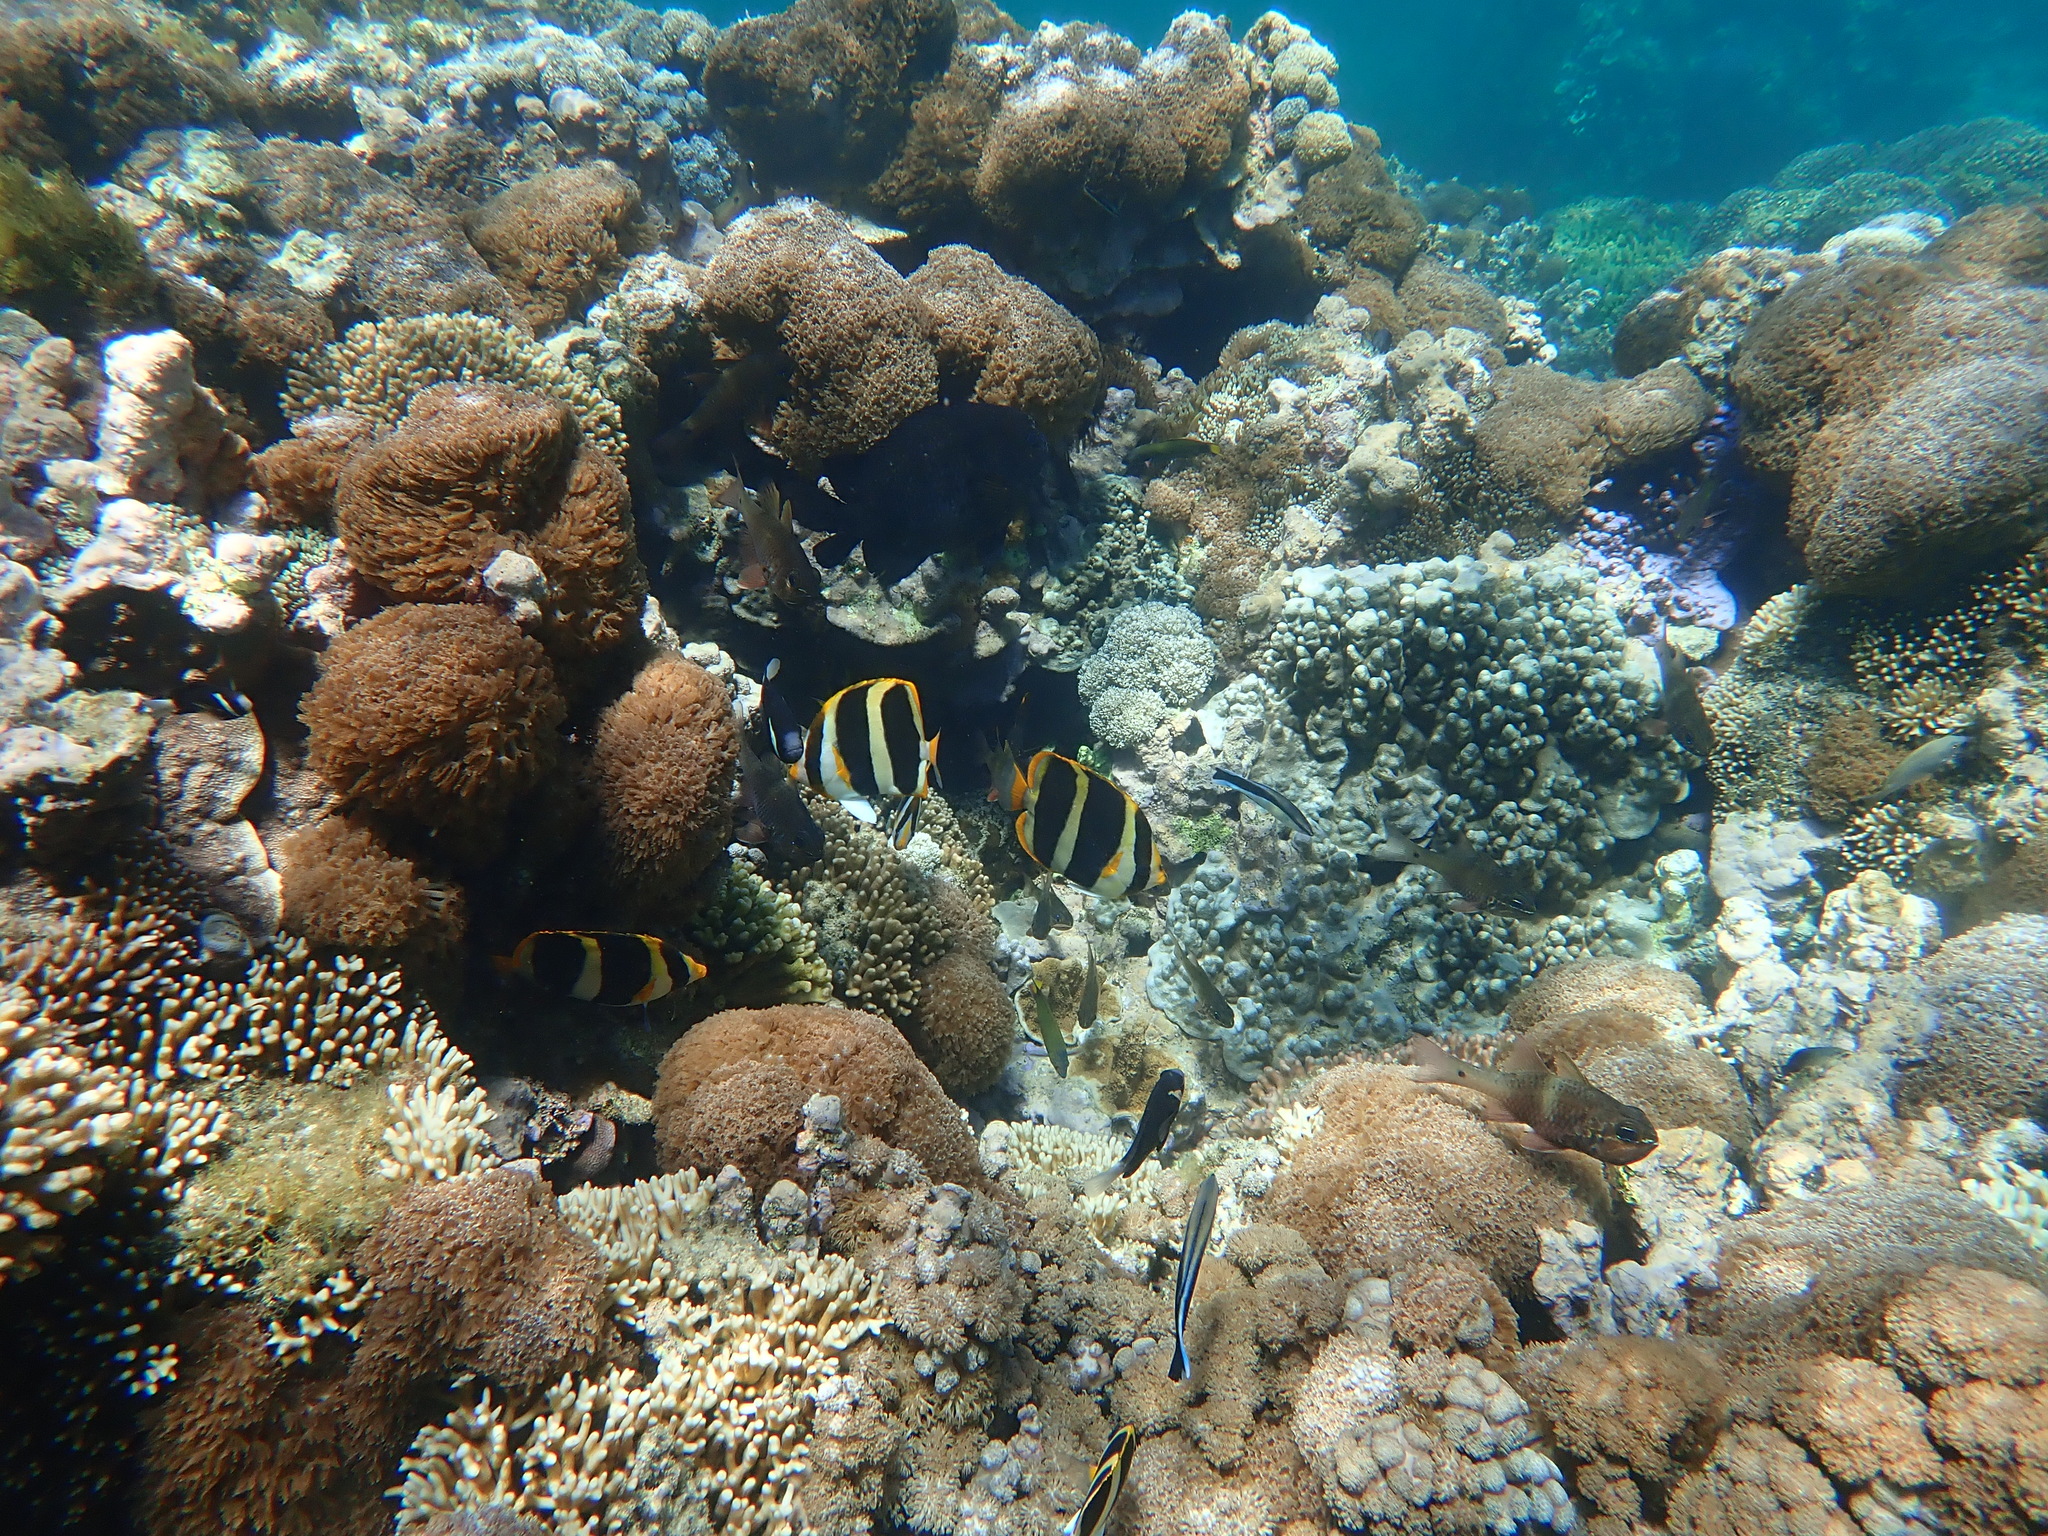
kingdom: Animalia
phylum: Chordata
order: Perciformes
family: Chaetodontidae
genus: Chaetodon
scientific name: Chaetodon tricinctus
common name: Three-striped butterflyfish
